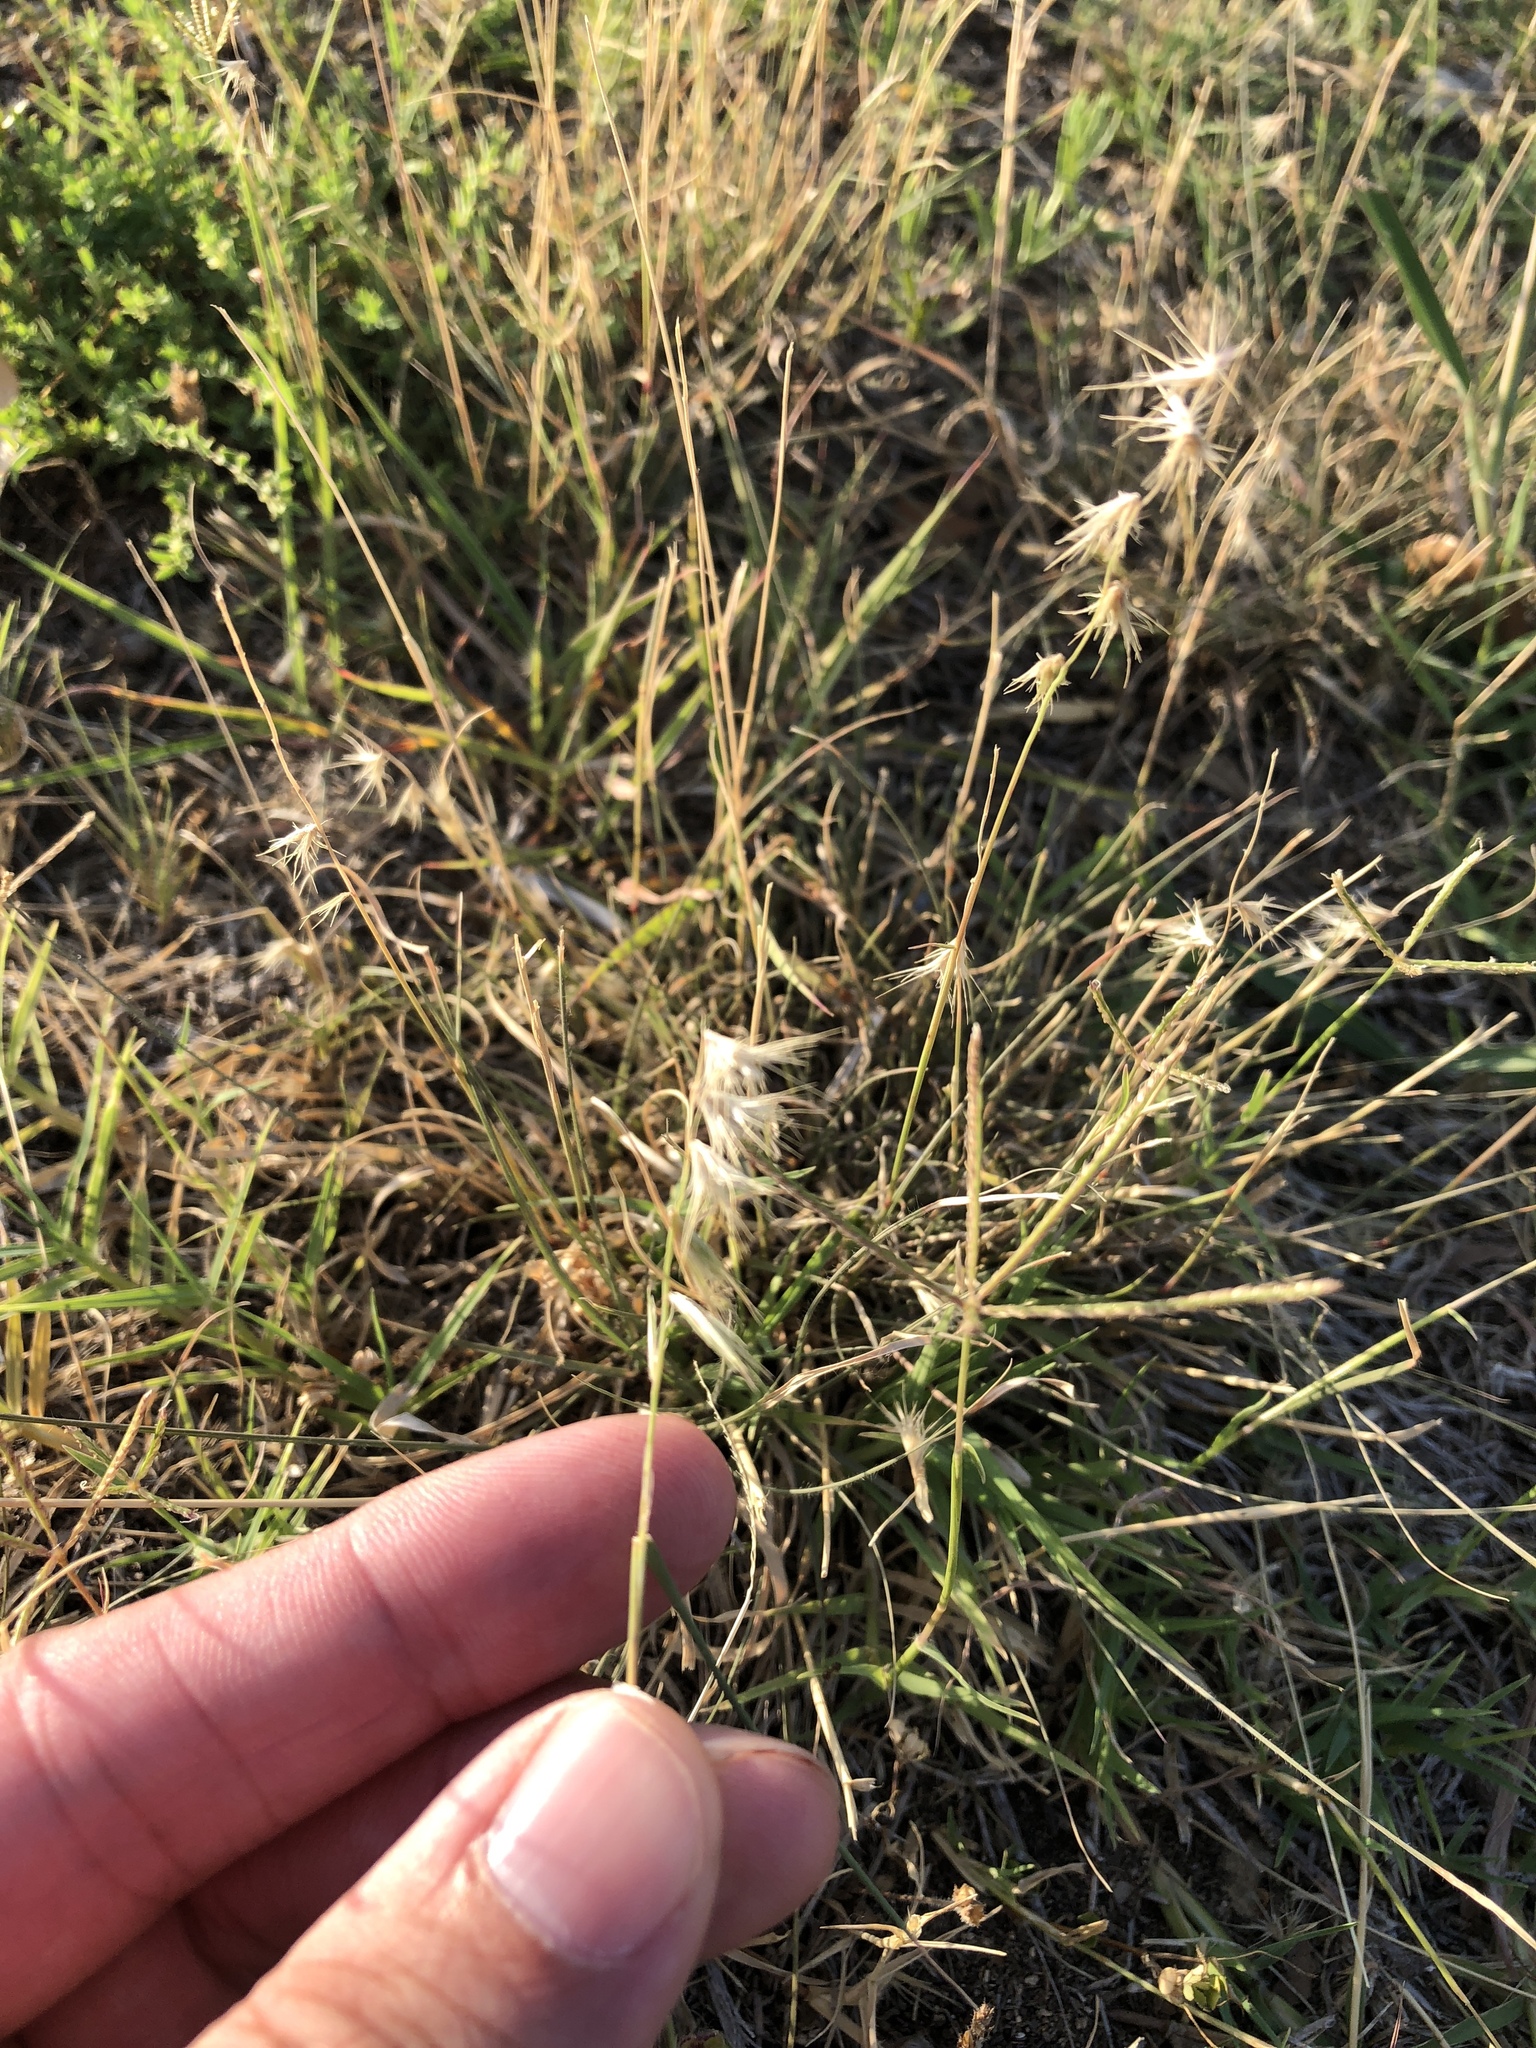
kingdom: Plantae
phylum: Tracheophyta
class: Liliopsida
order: Poales
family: Poaceae
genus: Bouteloua
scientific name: Bouteloua rigidiseta
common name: Texas grama
